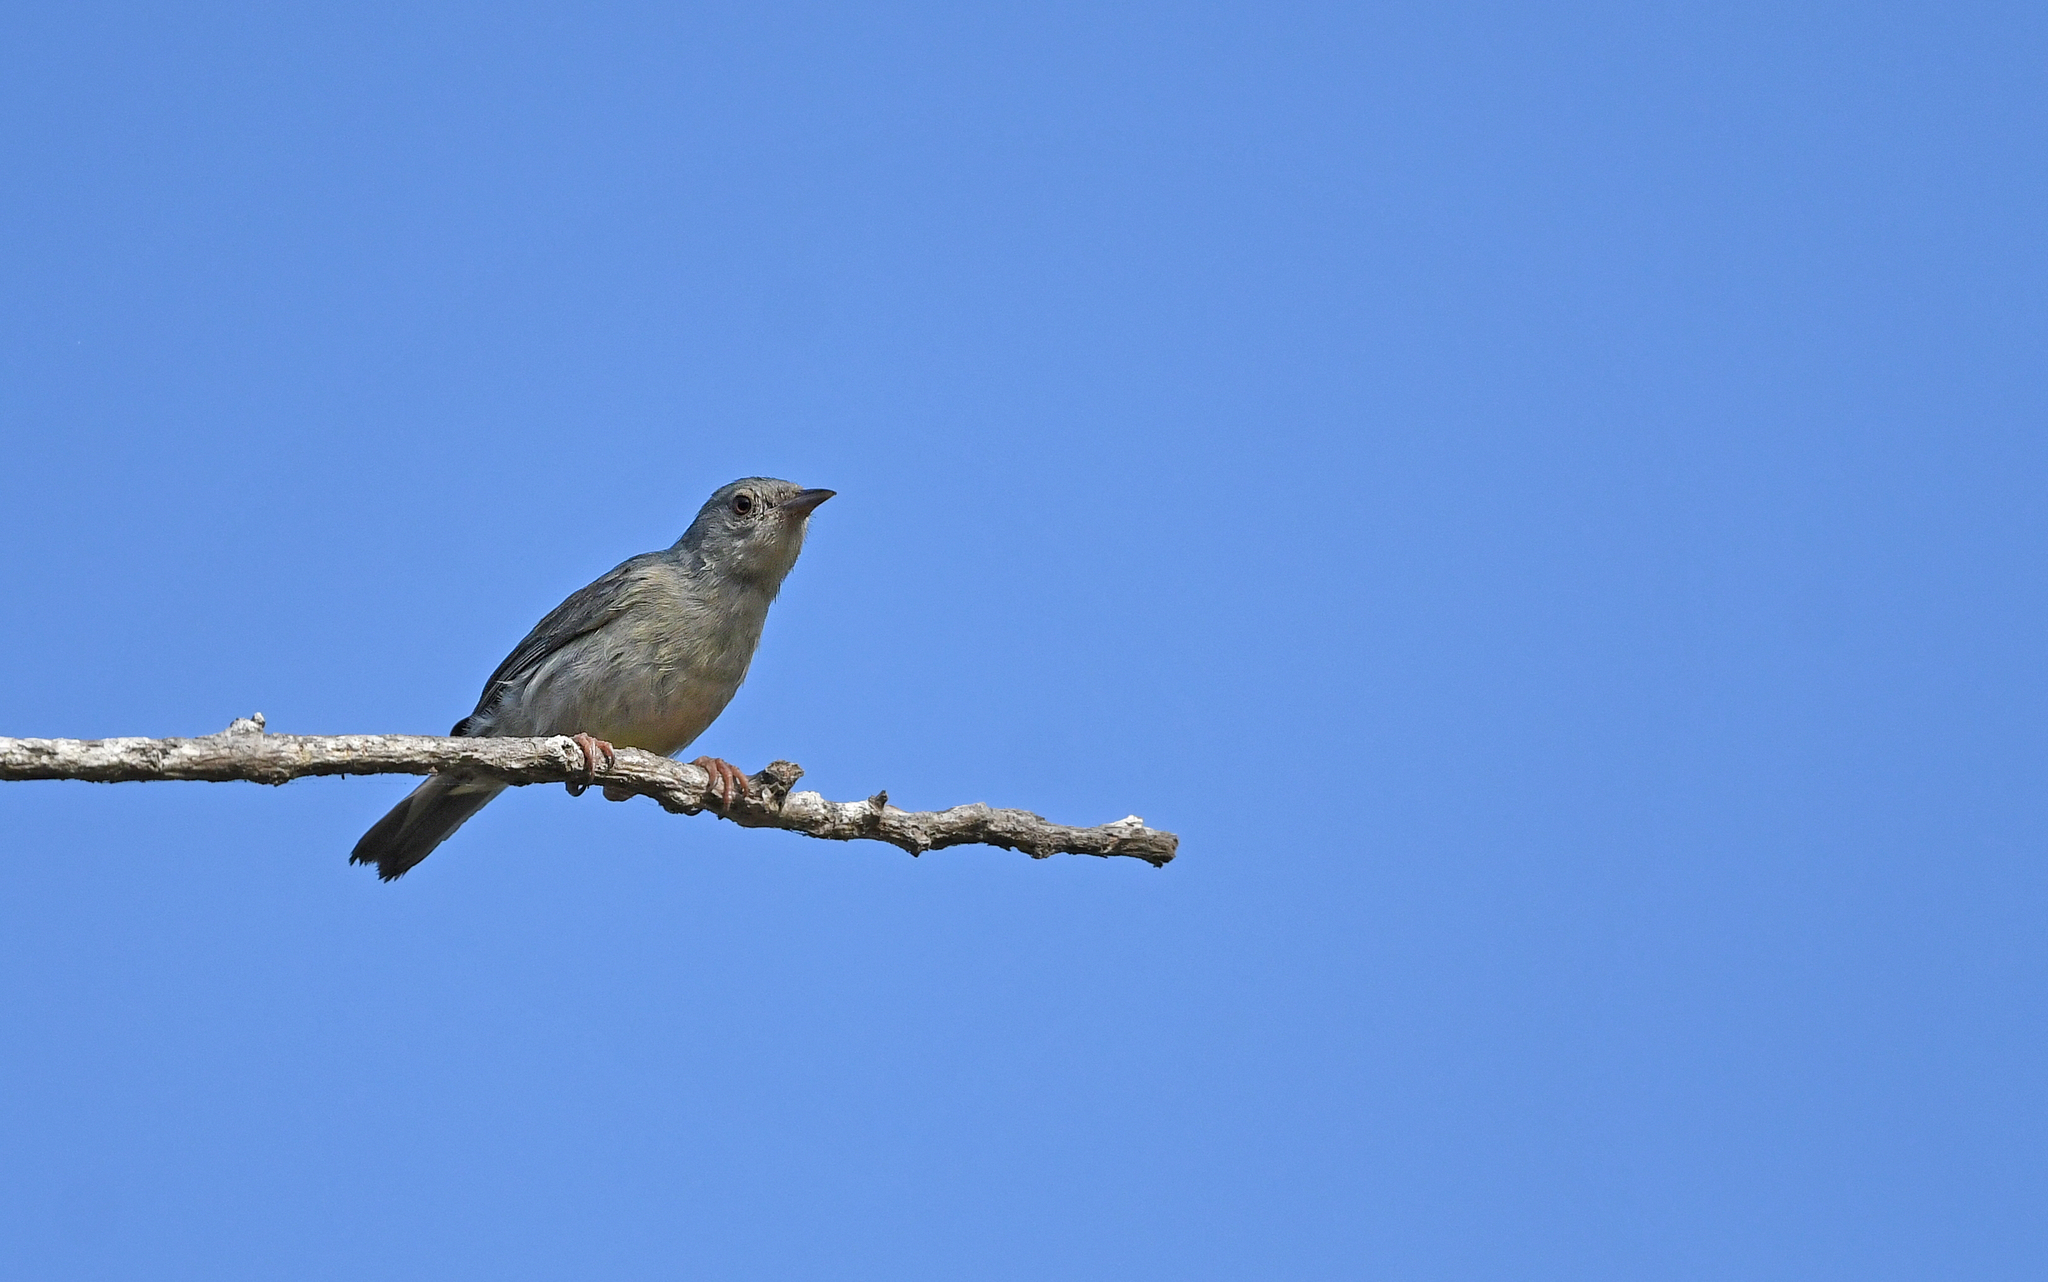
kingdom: Animalia
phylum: Chordata
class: Aves
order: Passeriformes
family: Thraupidae
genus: Conirostrum
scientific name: Conirostrum bicolor
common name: Bicolored conebill
